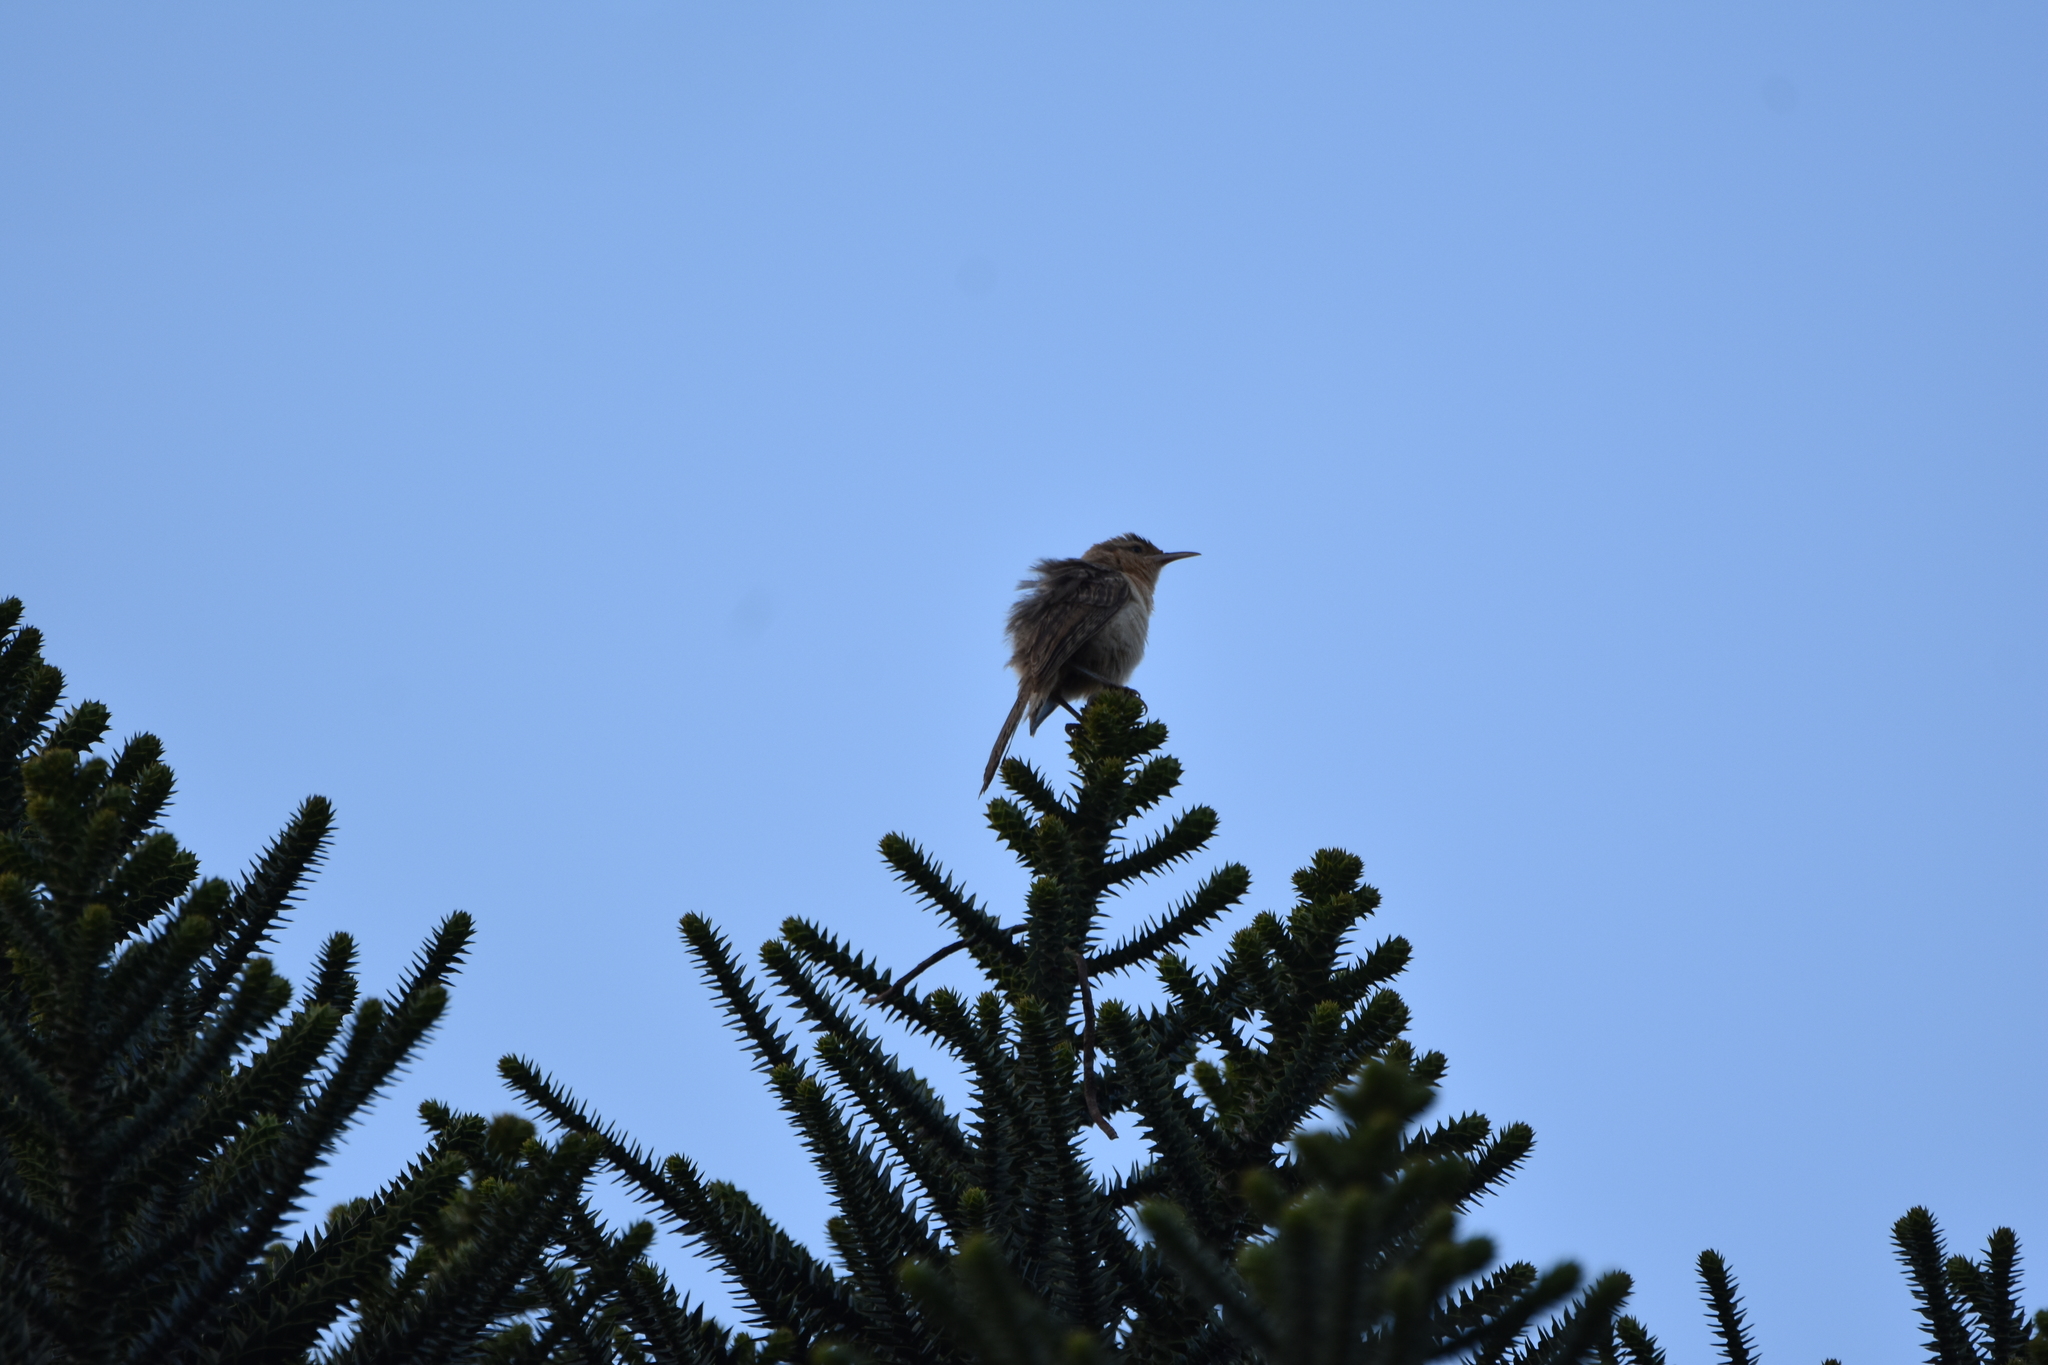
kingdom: Animalia
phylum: Chordata
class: Aves
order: Passeriformes
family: Troglodytidae
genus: Campylorhynchus
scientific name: Campylorhynchus turdinus
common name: Thrush-like wren
